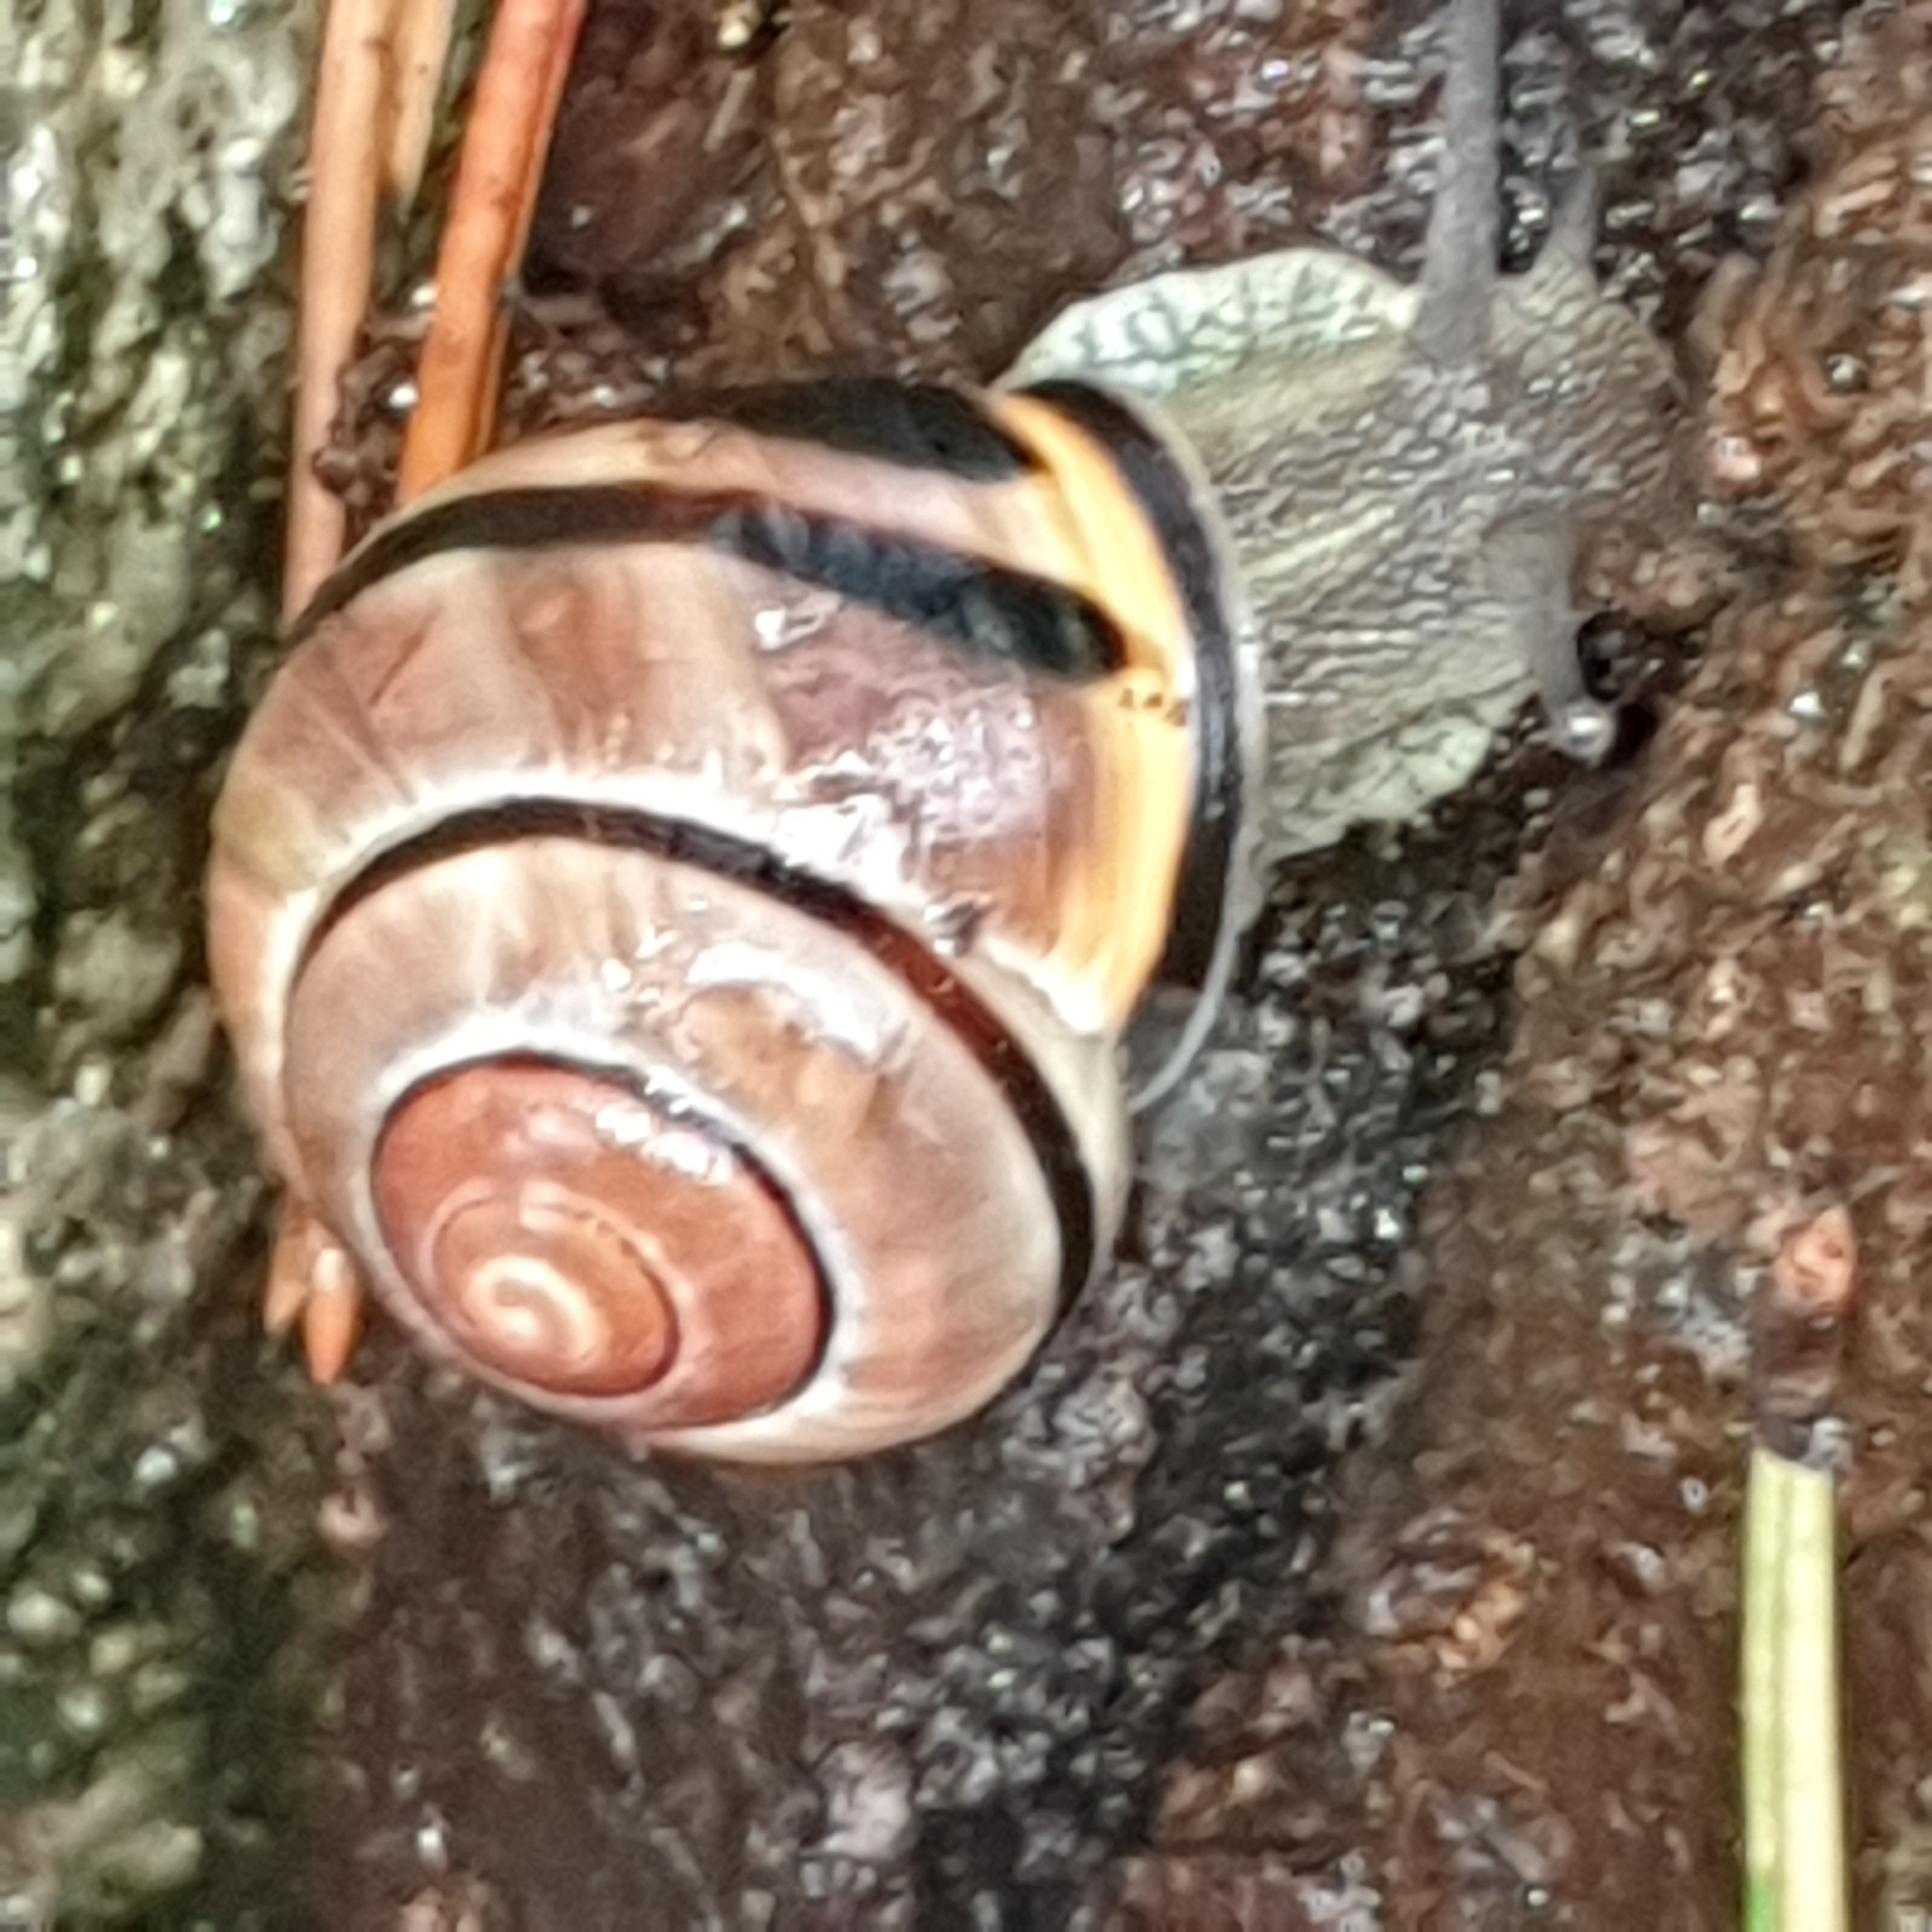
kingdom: Animalia
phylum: Mollusca
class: Gastropoda
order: Stylommatophora
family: Helicidae
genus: Cepaea
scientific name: Cepaea nemoralis
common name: Grovesnail
